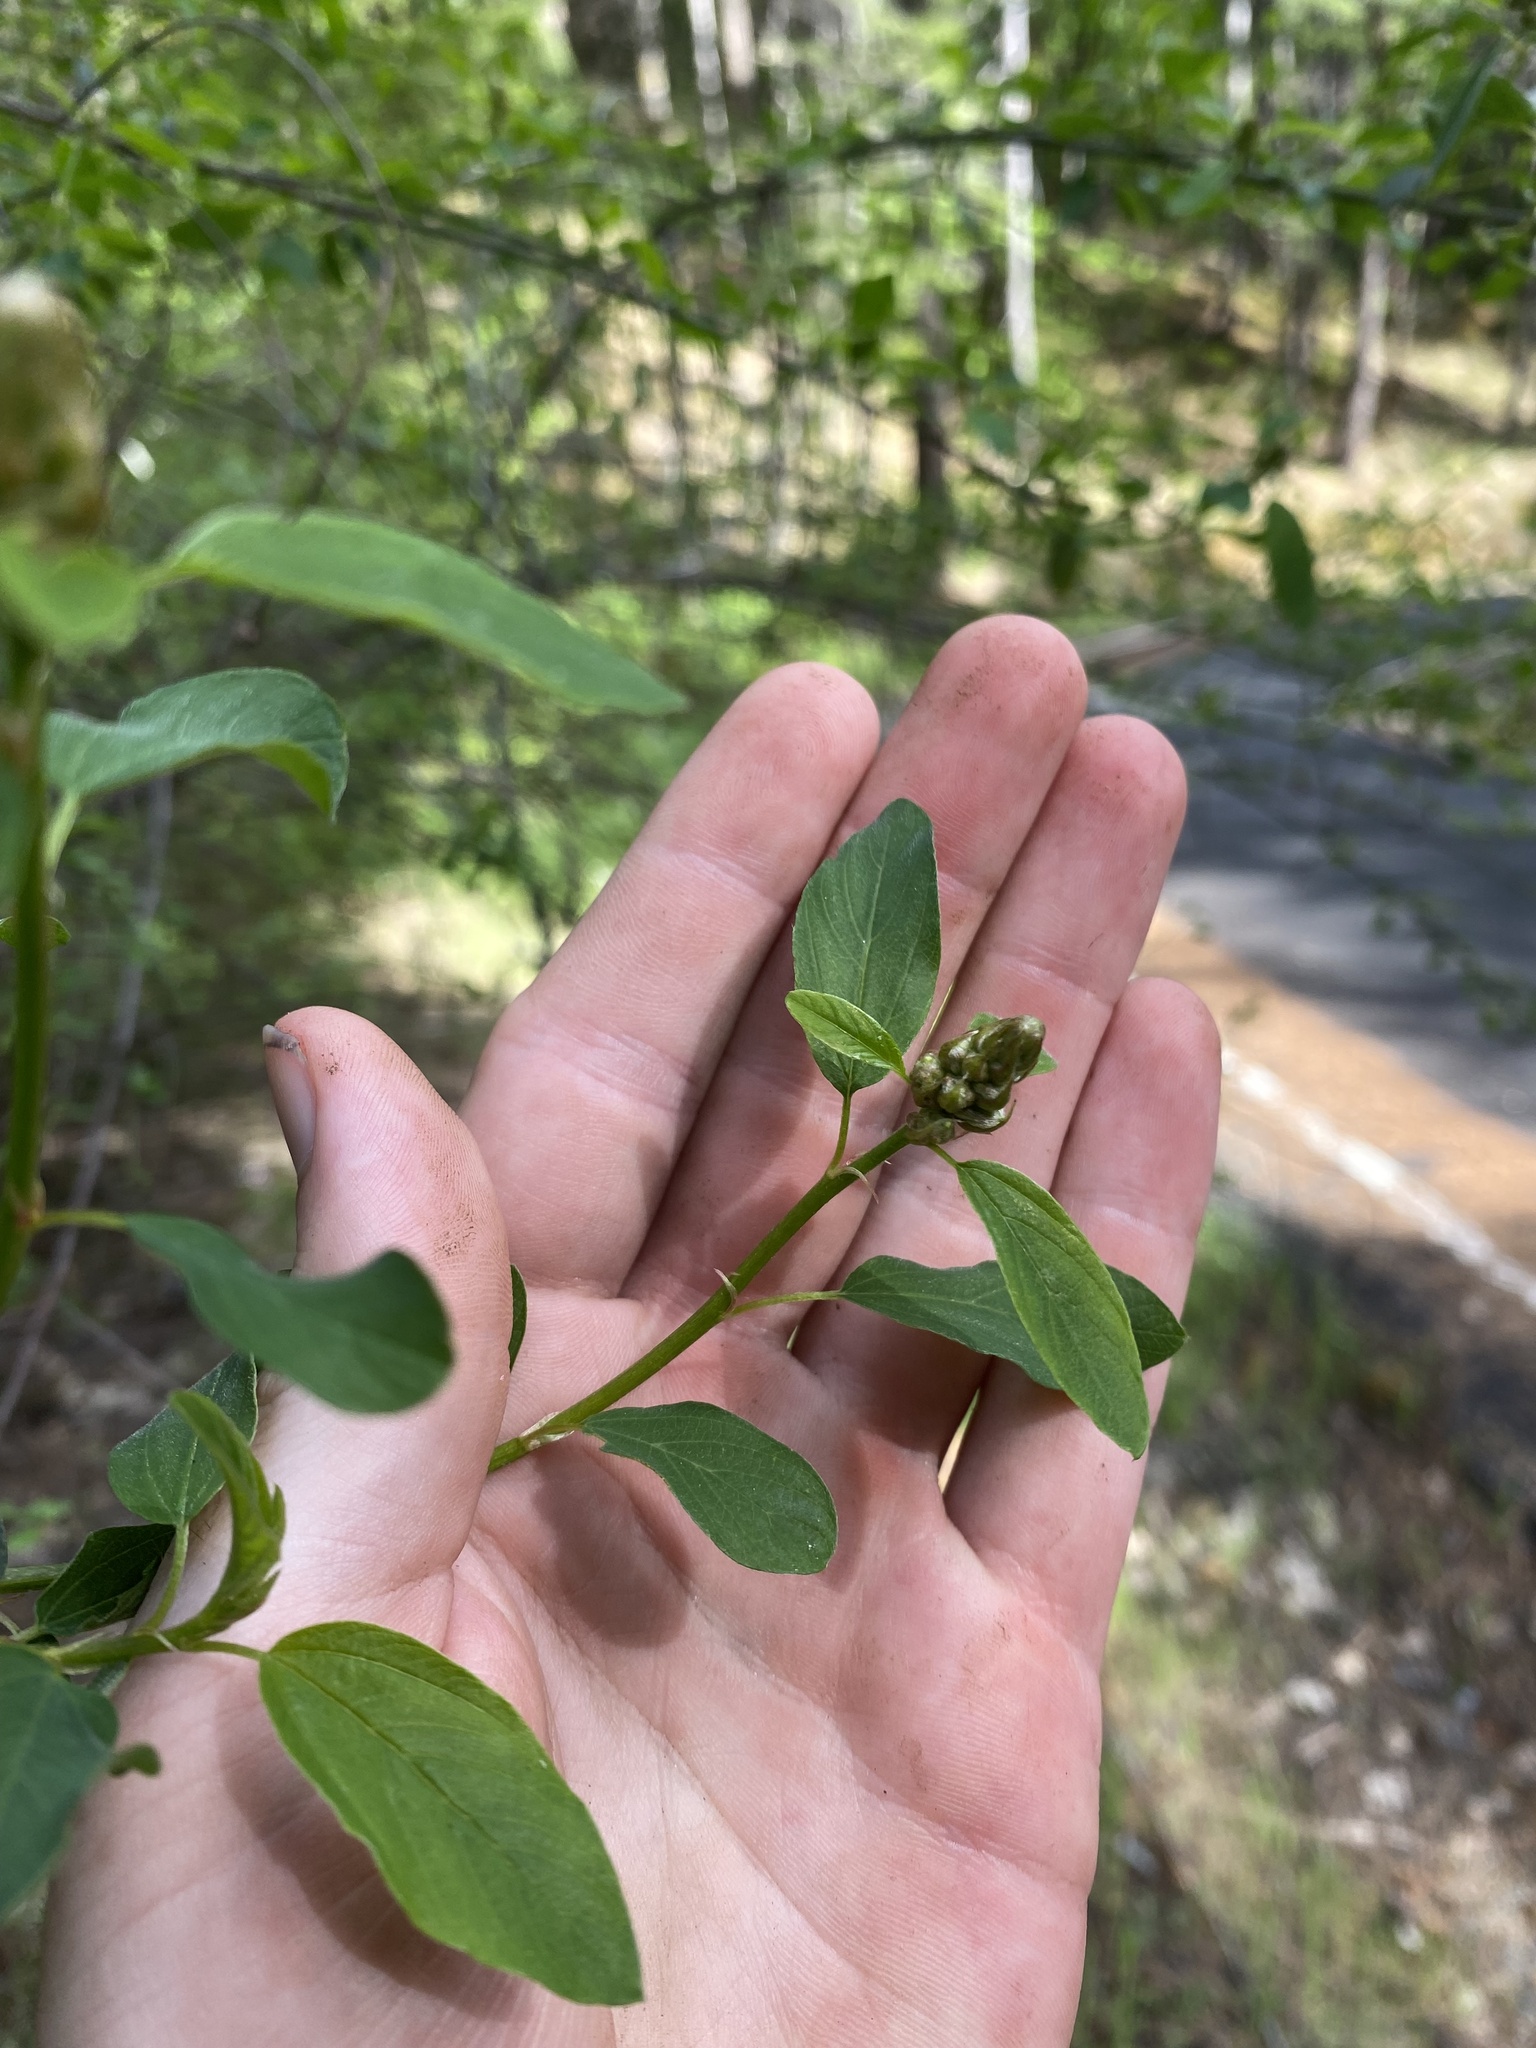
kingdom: Plantae
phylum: Tracheophyta
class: Magnoliopsida
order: Rosales
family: Rhamnaceae
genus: Ceanothus
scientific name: Ceanothus integerrimus
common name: Deerbrush ceanothus
